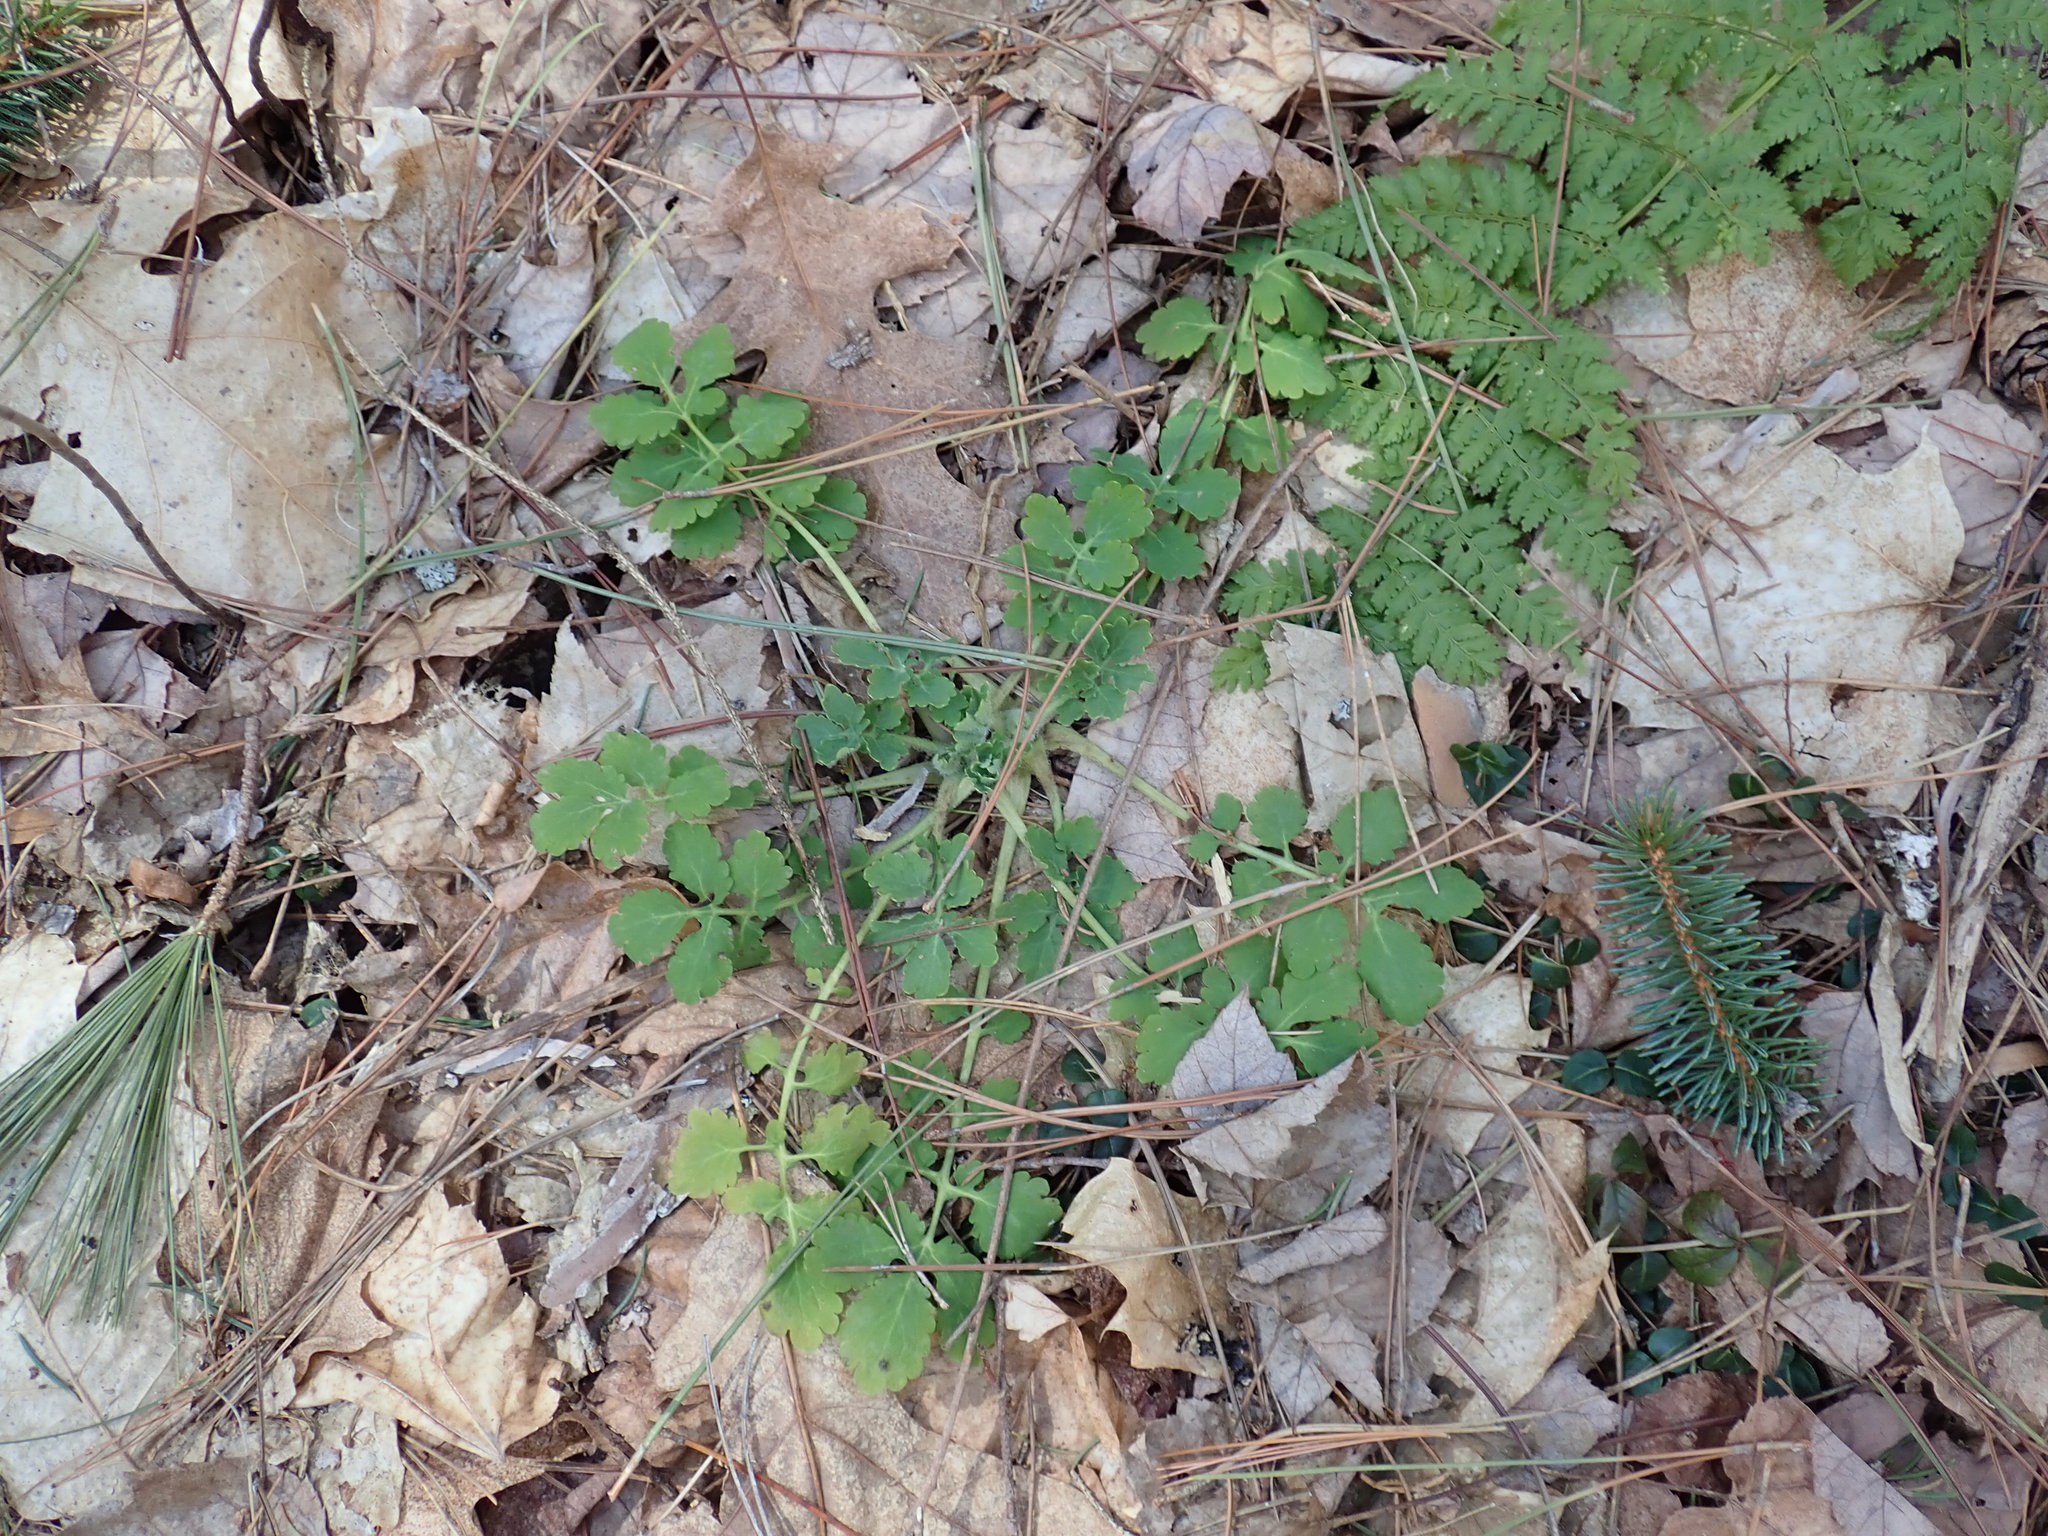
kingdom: Plantae
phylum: Tracheophyta
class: Magnoliopsida
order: Ranunculales
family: Papaveraceae
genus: Chelidonium
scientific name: Chelidonium majus
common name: Greater celandine
